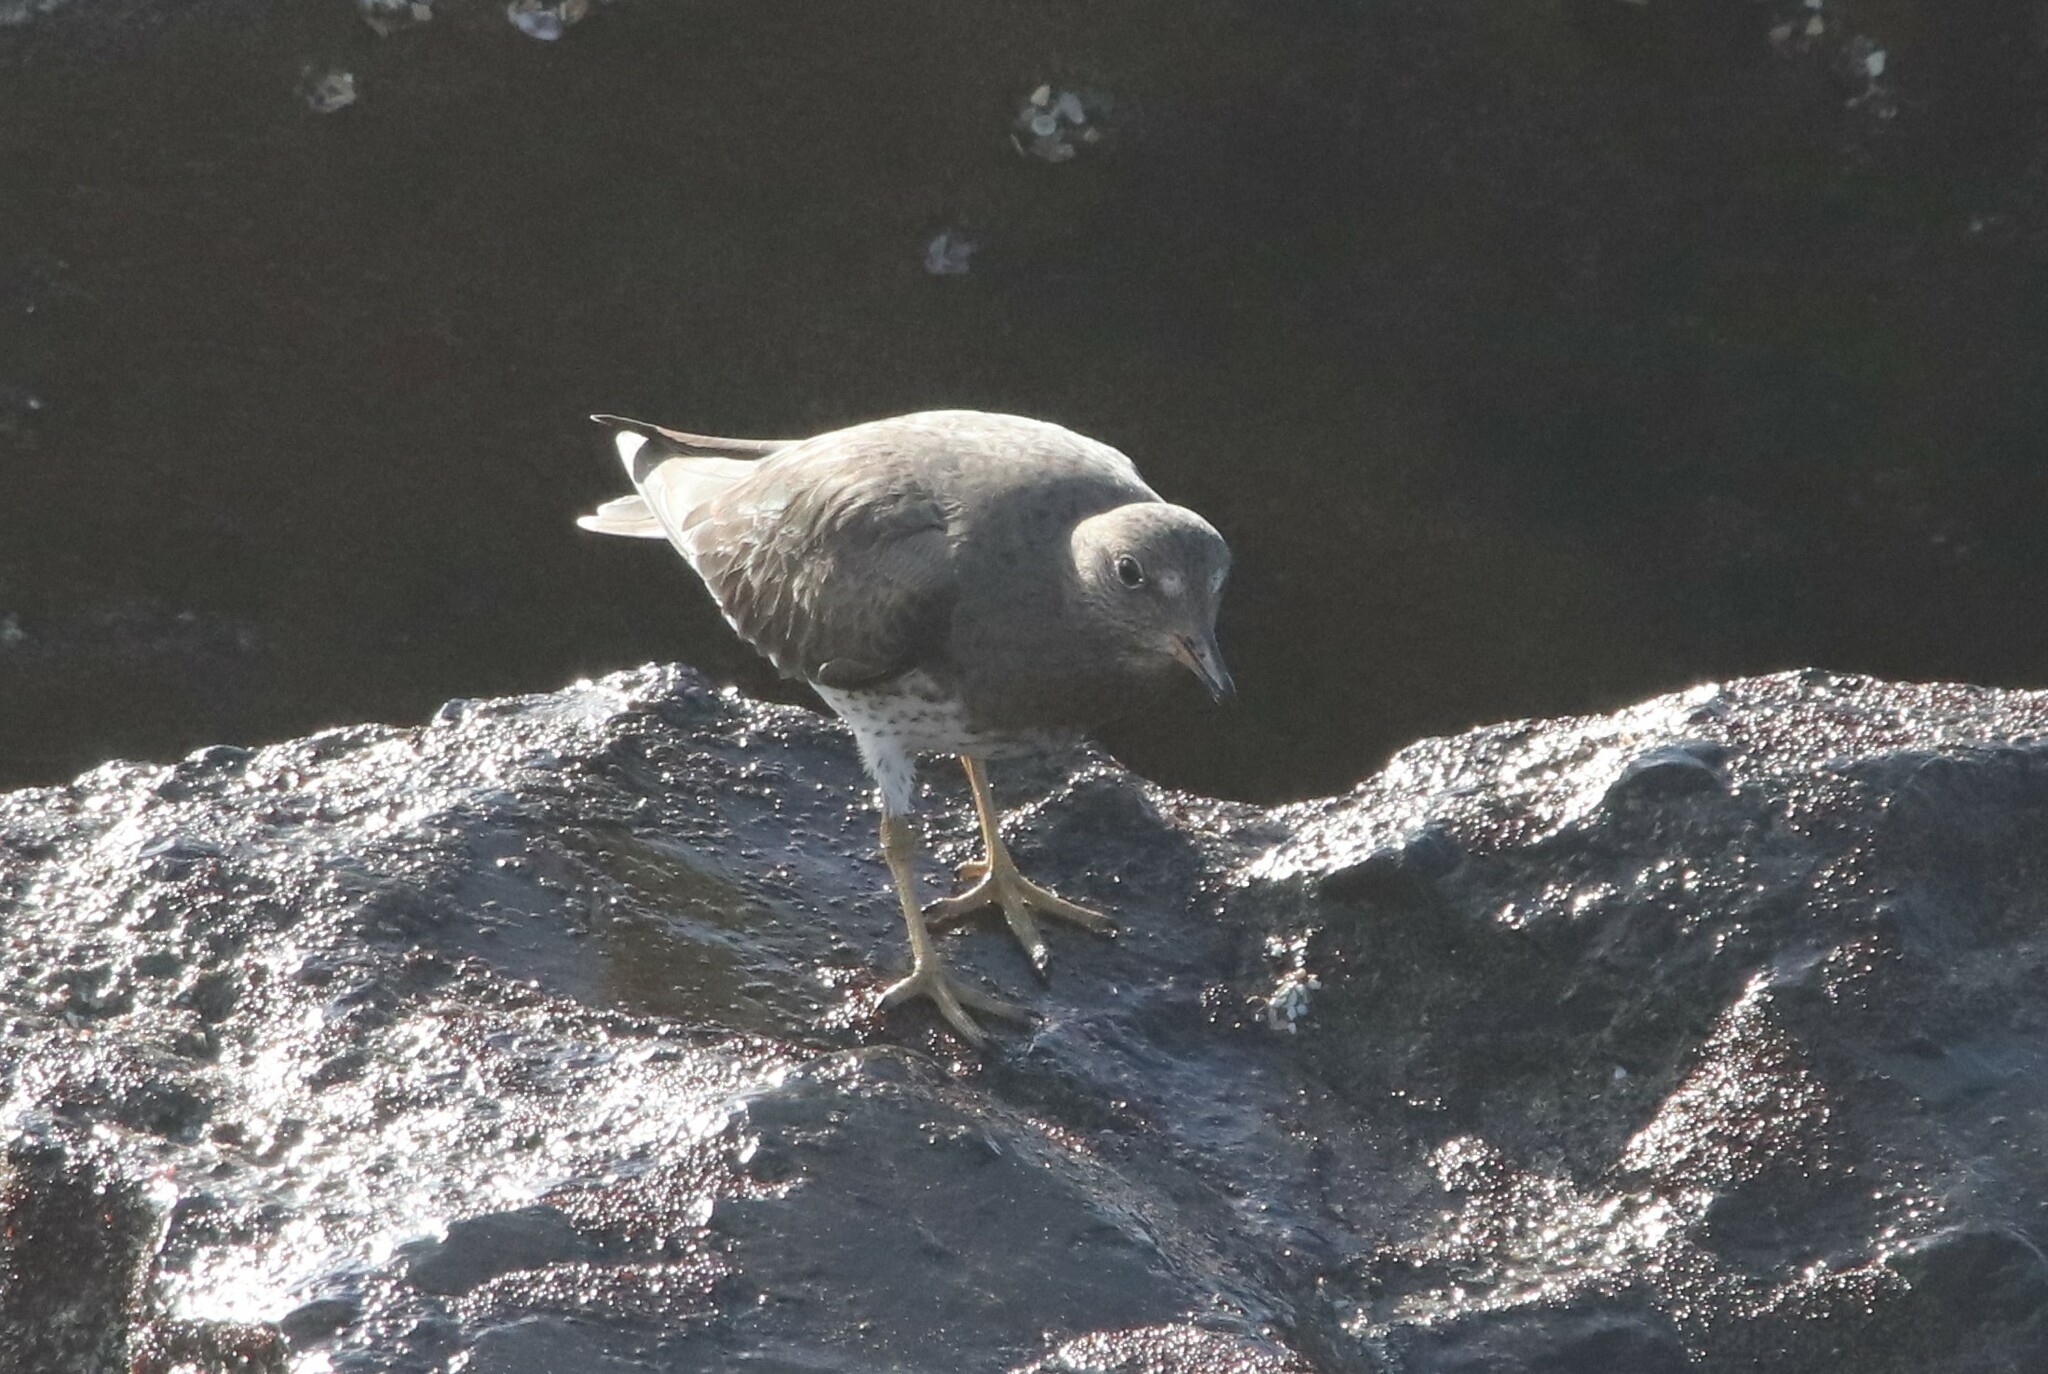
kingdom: Animalia
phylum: Chordata
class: Aves
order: Charadriiformes
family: Scolopacidae
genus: Calidris
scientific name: Calidris virgata
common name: Surfbird
